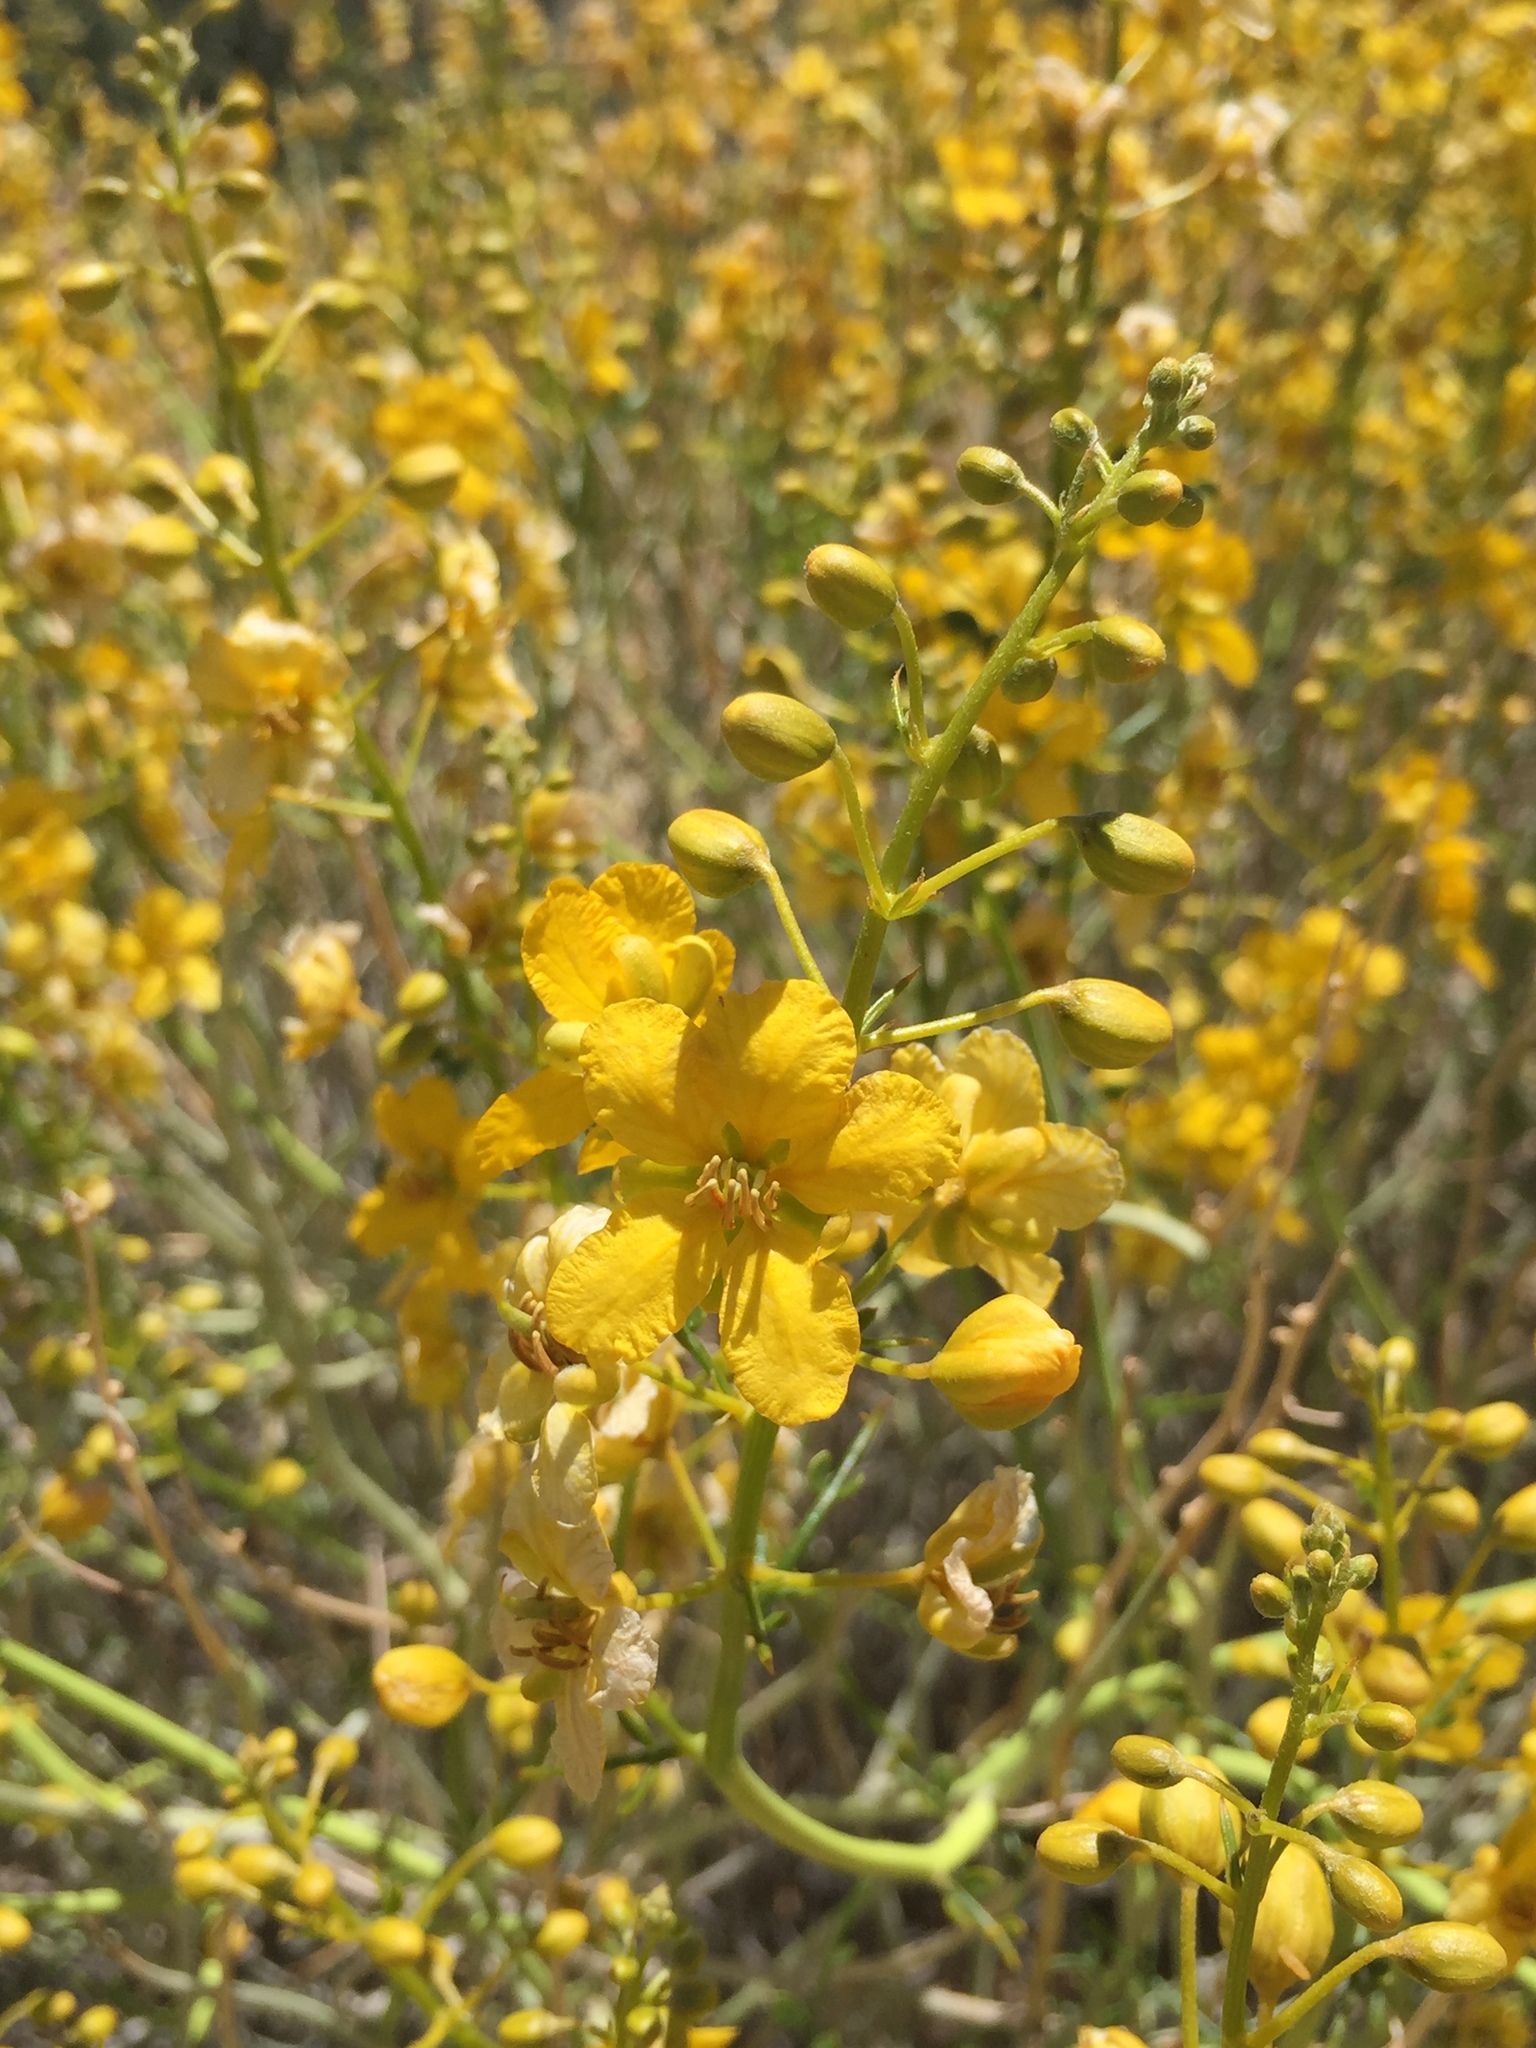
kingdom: Plantae
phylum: Tracheophyta
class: Magnoliopsida
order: Fabales
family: Fabaceae
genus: Senna
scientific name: Senna armata
